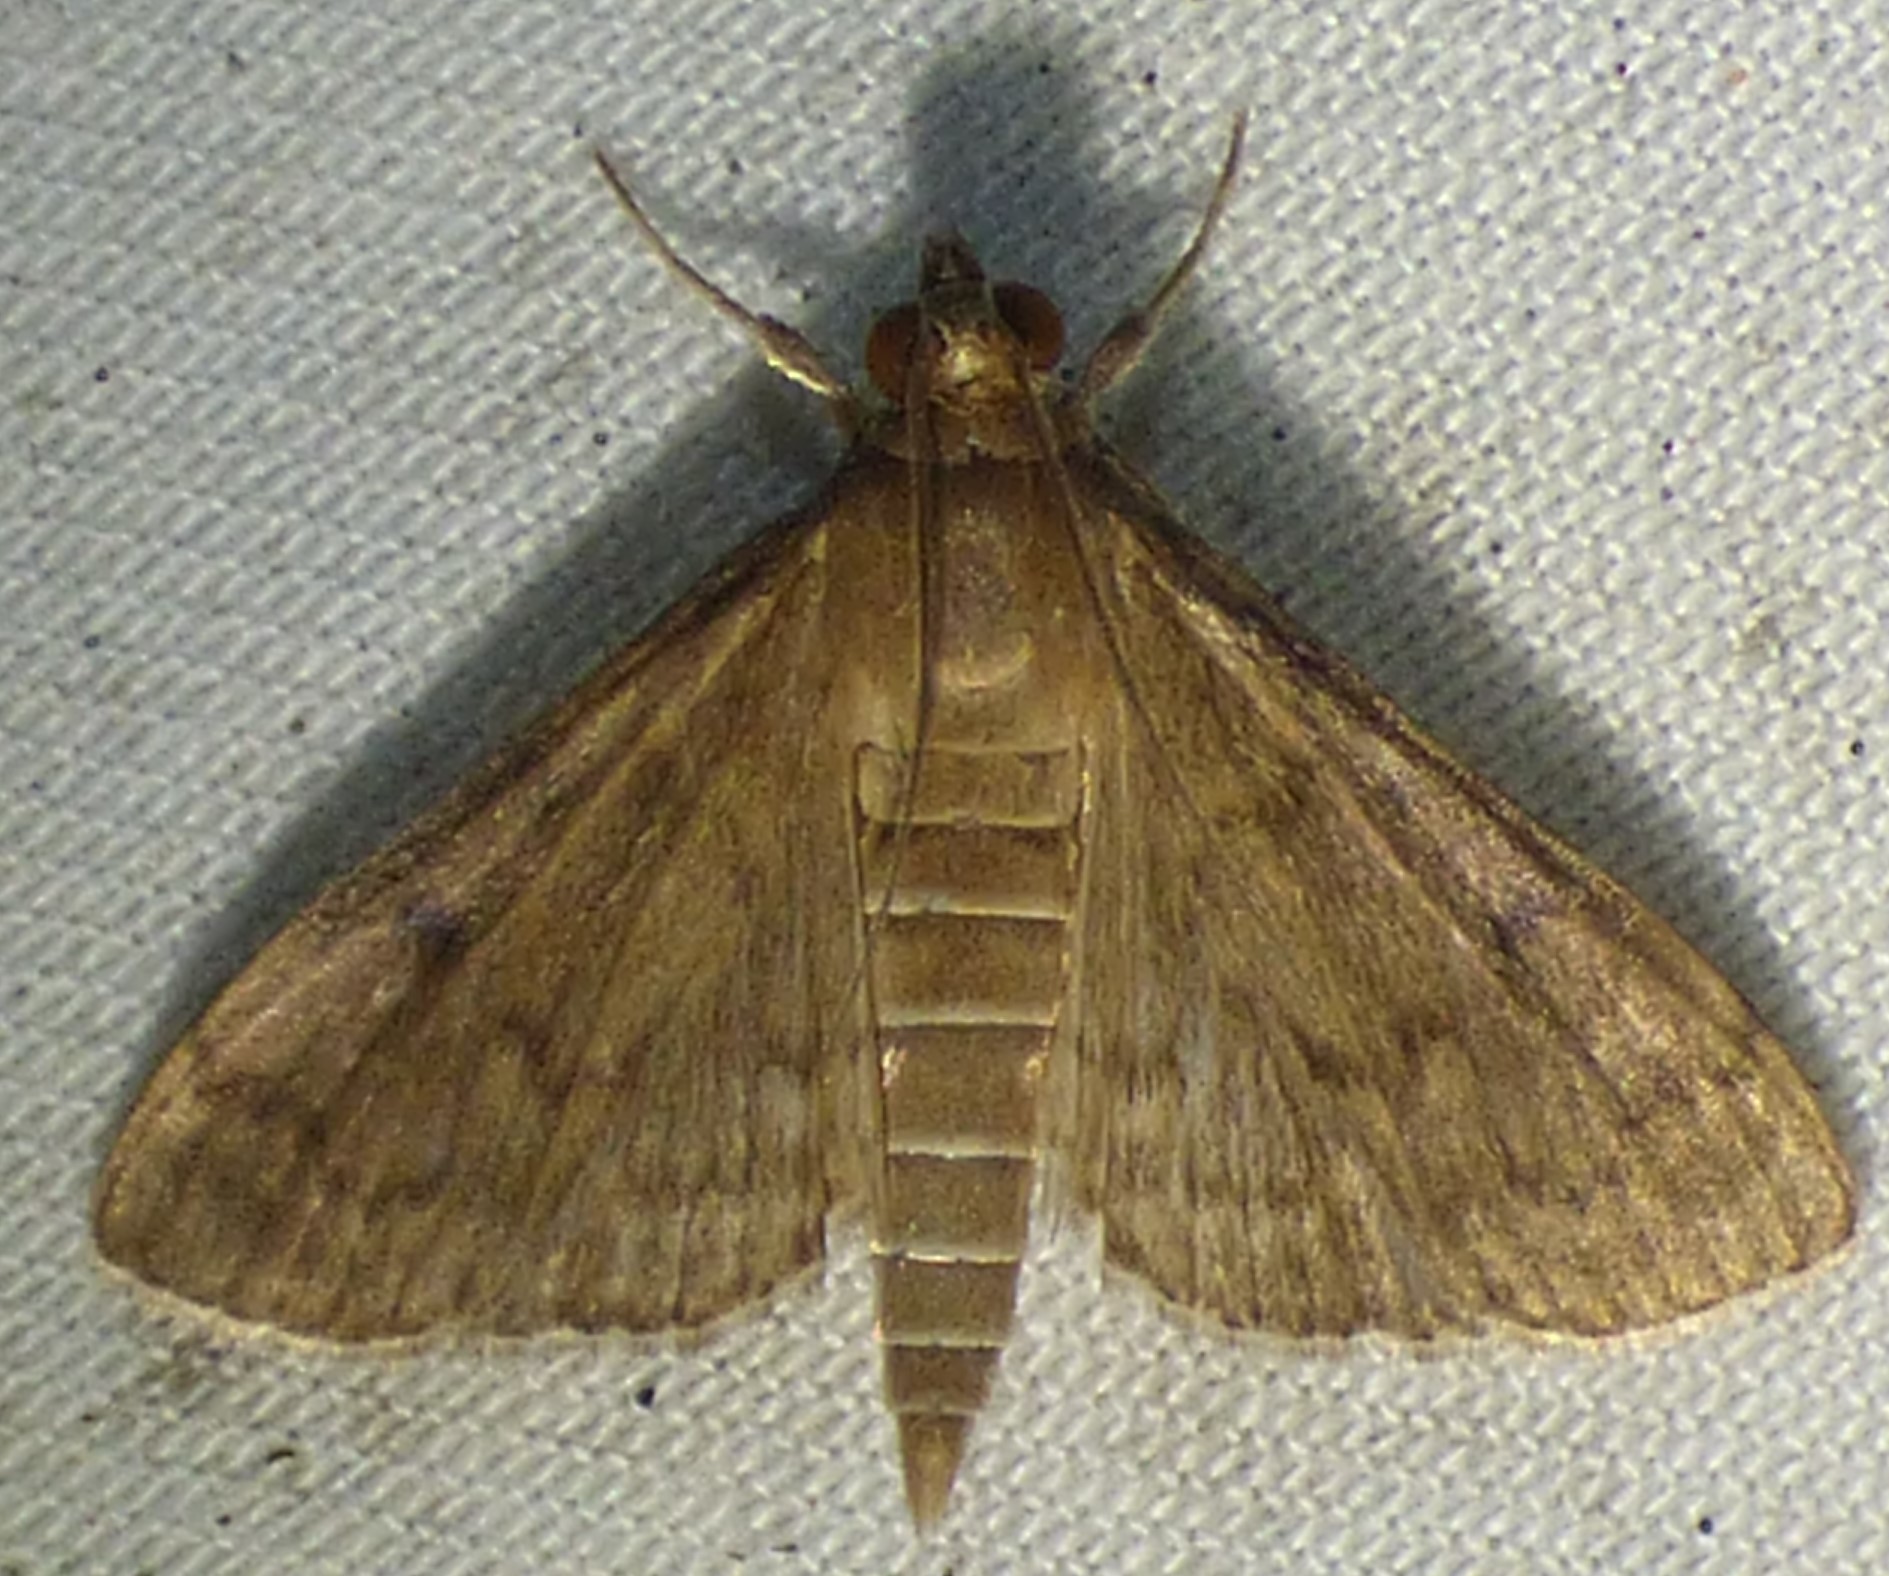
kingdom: Animalia
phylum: Arthropoda
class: Insecta
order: Lepidoptera
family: Crambidae
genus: Herpetogramma
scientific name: Herpetogramma phaeopteralis
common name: Dusky herpetogramma moth
